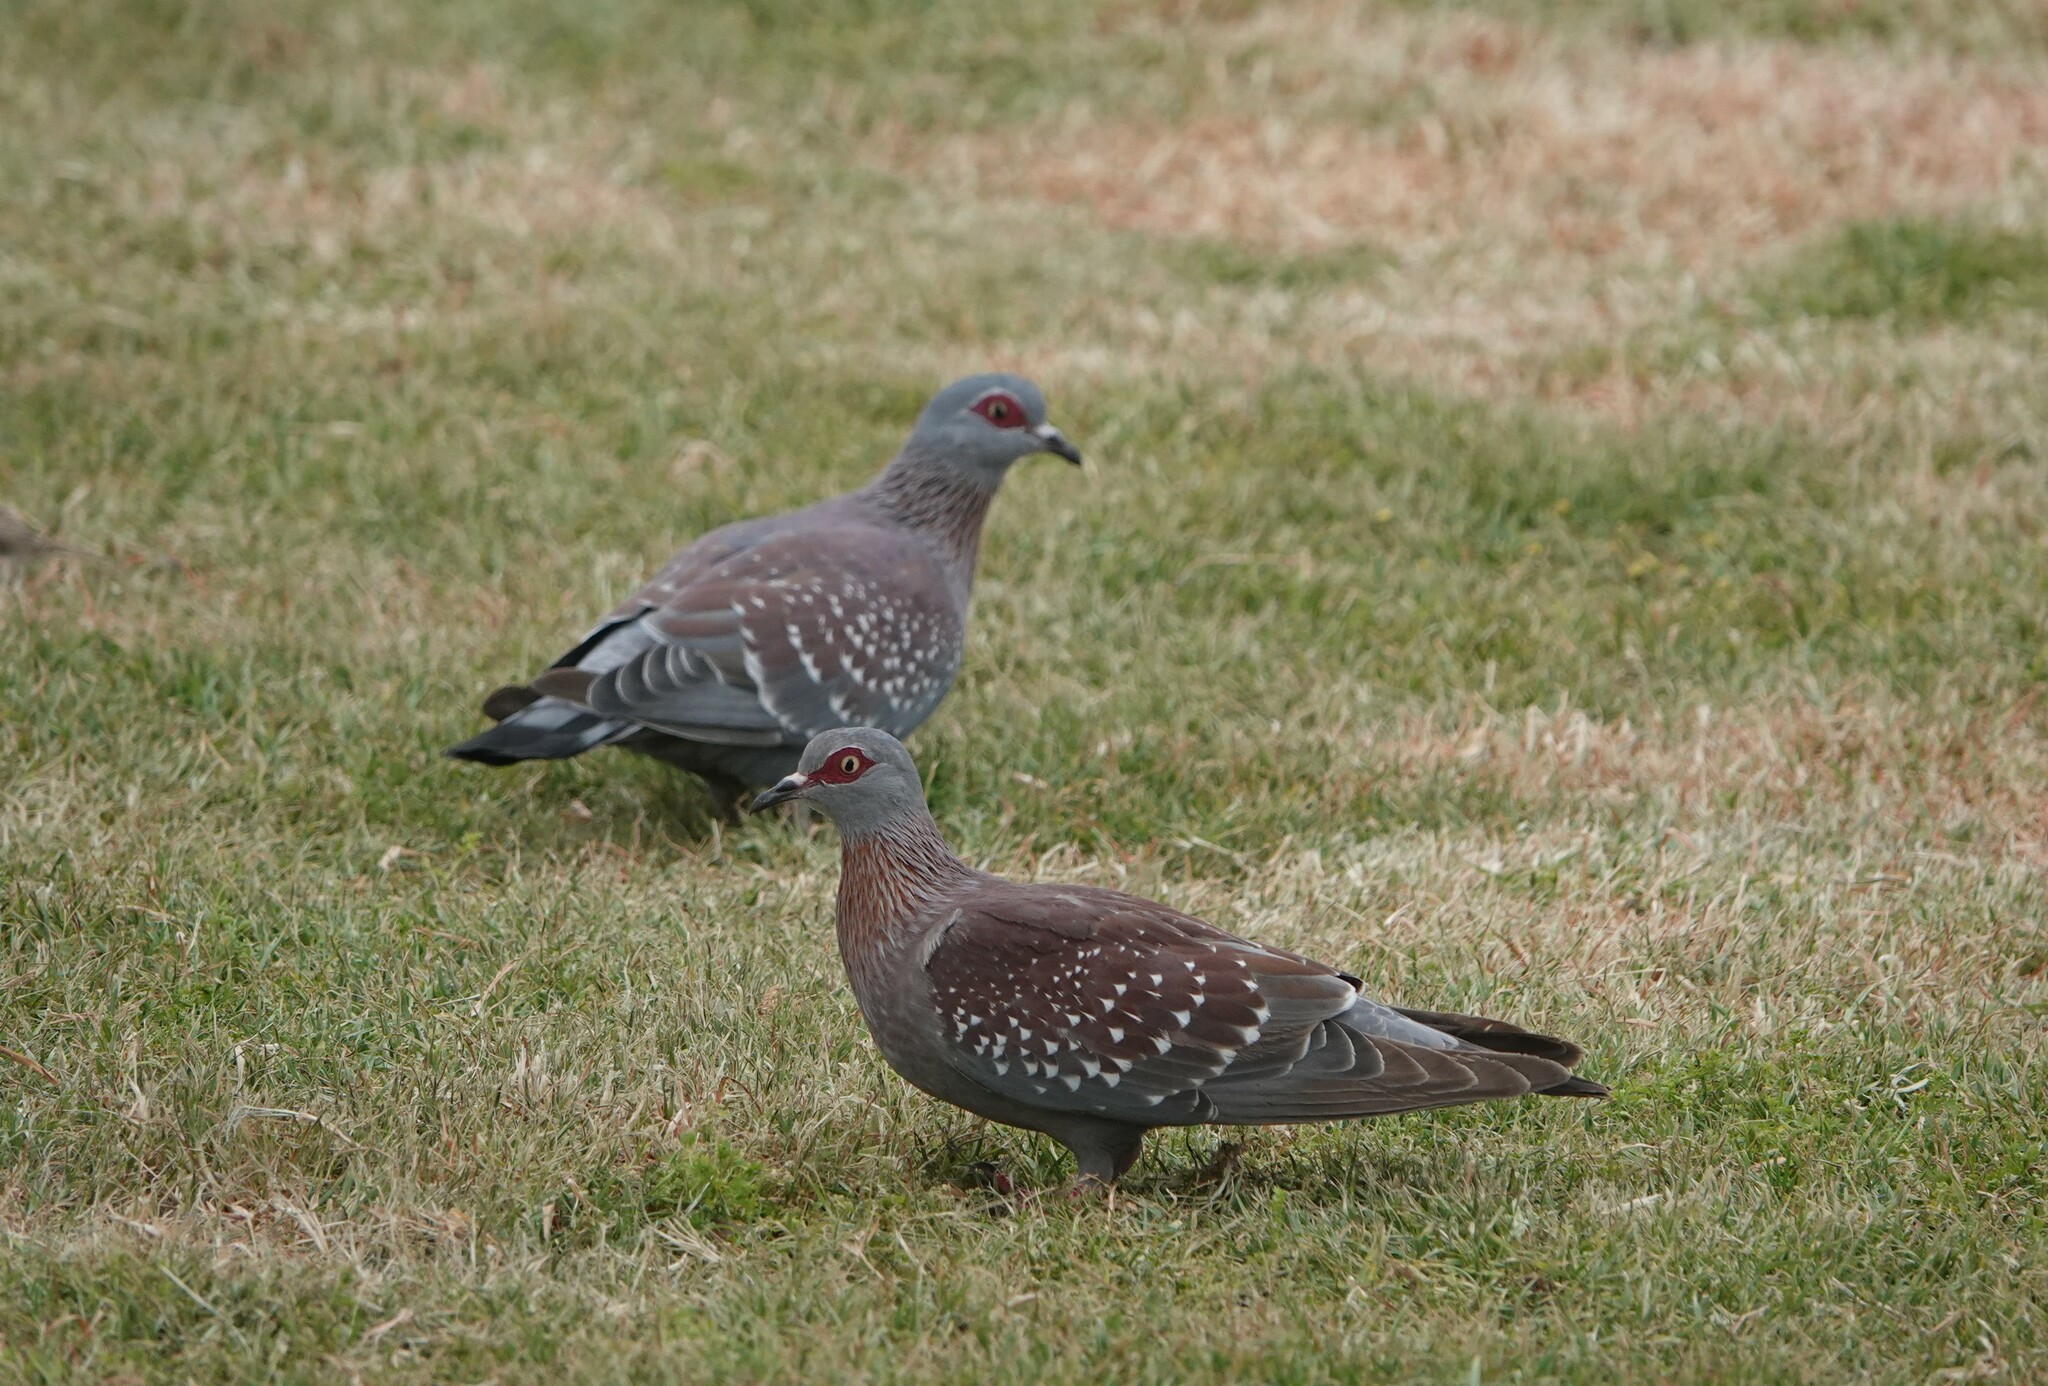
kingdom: Animalia
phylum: Chordata
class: Aves
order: Columbiformes
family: Columbidae
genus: Columba
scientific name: Columba guinea
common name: Speckled pigeon
